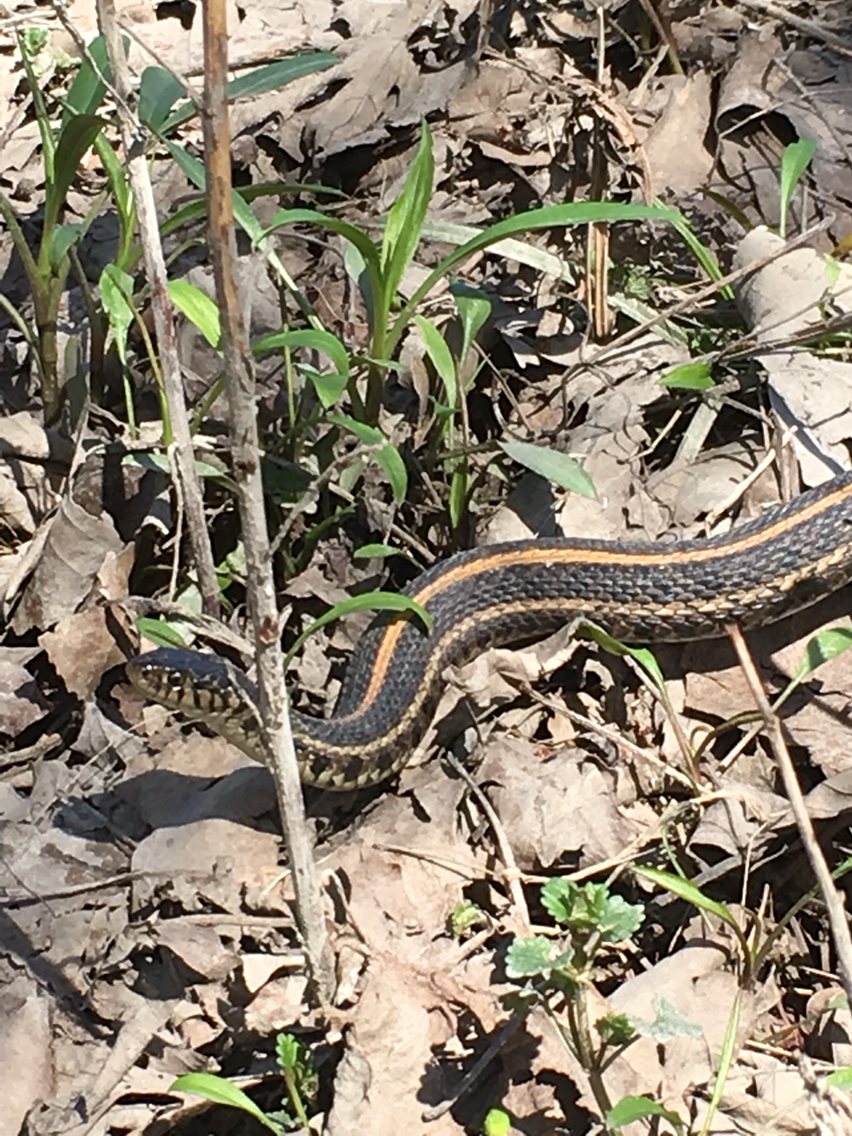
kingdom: Animalia
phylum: Chordata
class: Squamata
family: Colubridae
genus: Thamnophis
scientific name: Thamnophis radix
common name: Plains garter snake
